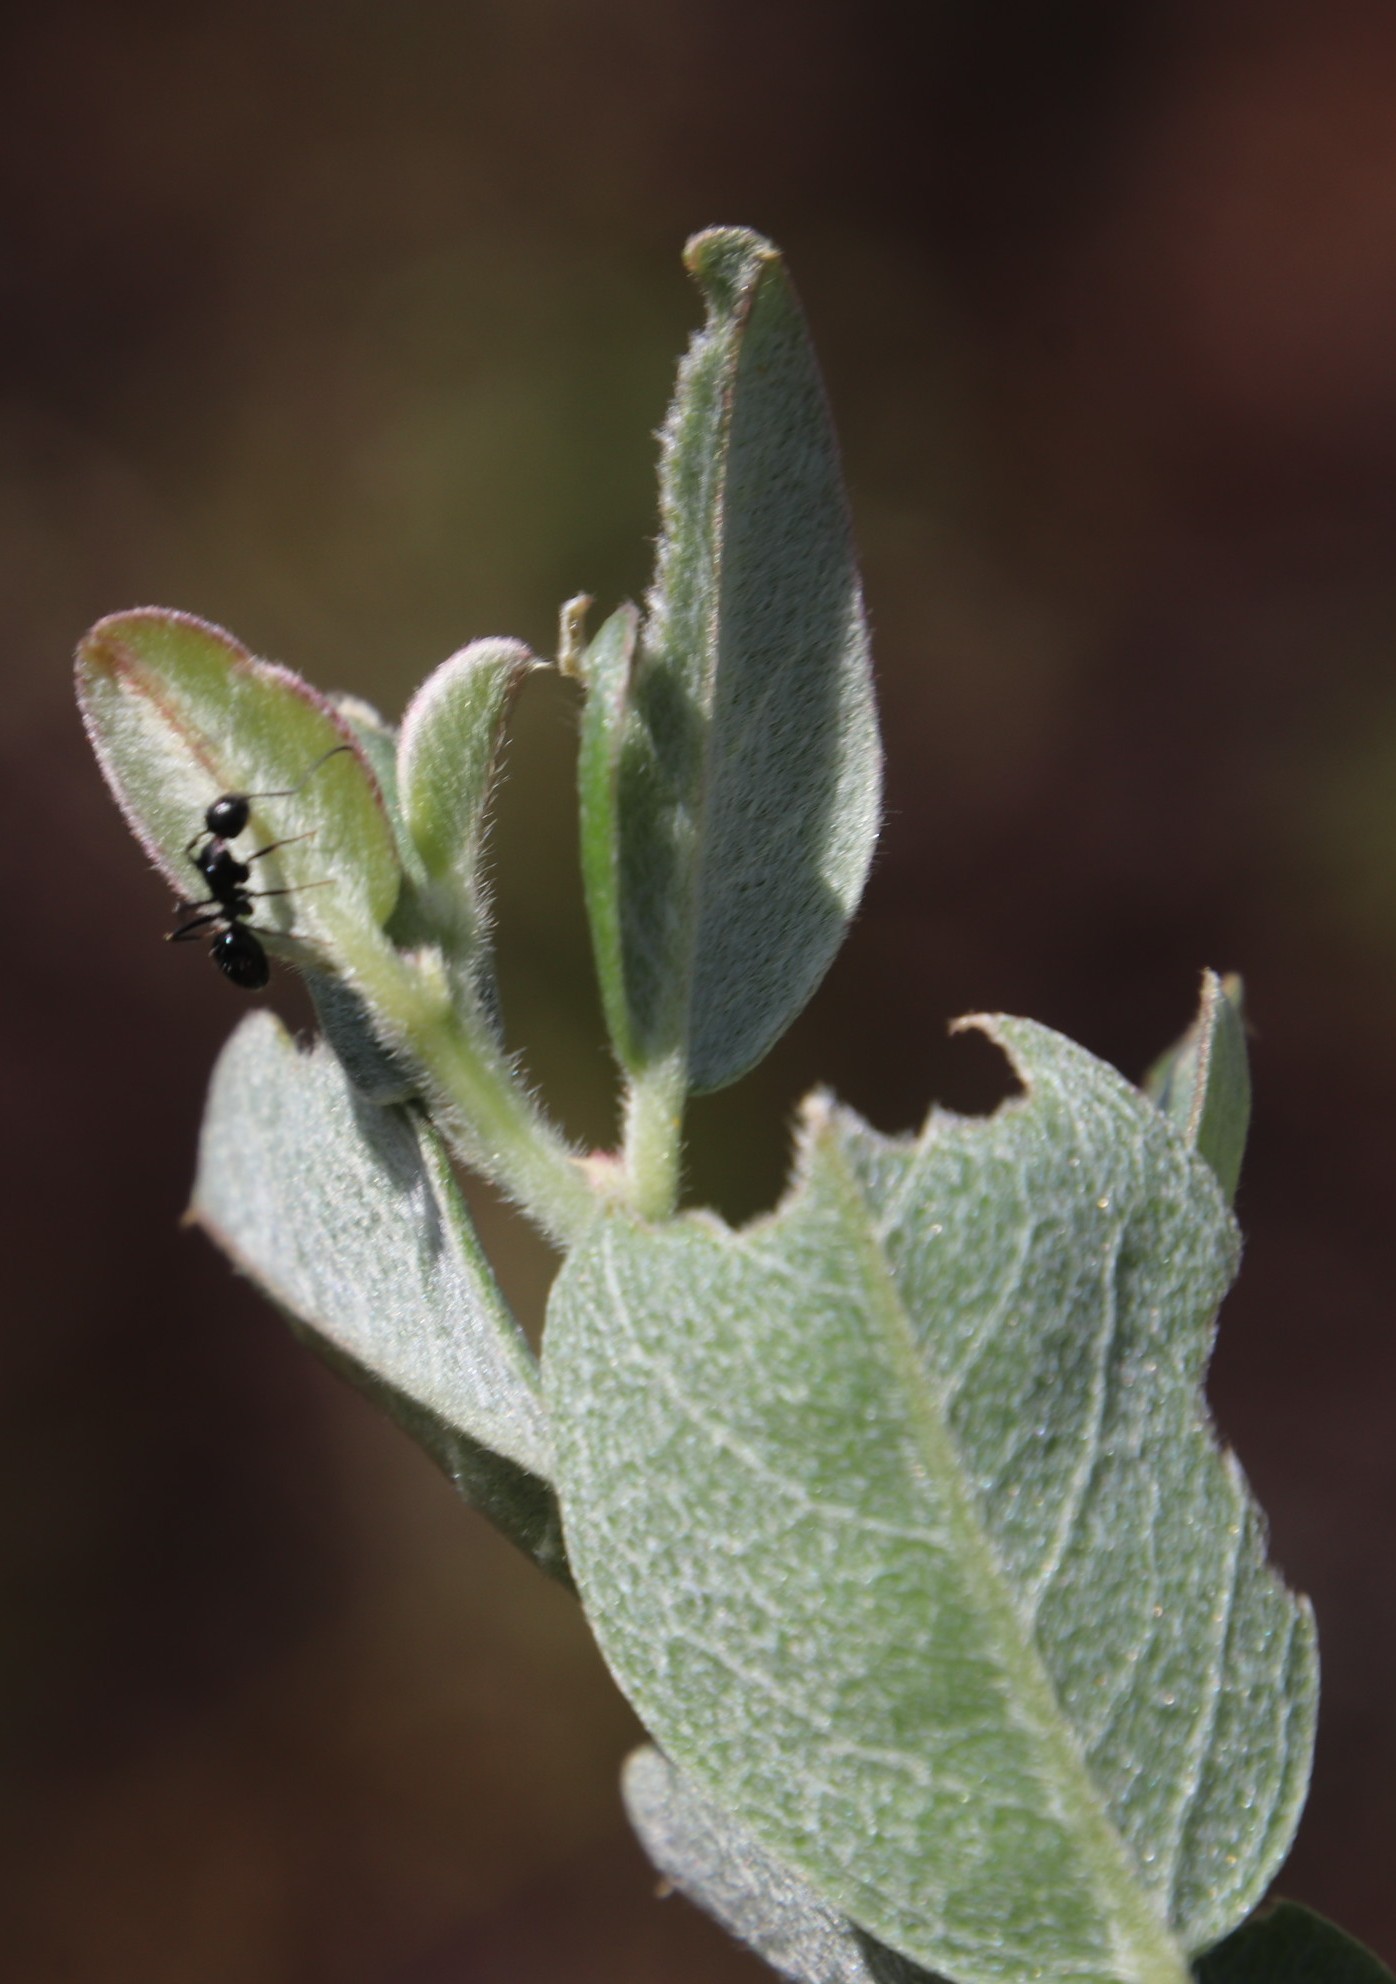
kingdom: Animalia
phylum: Arthropoda
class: Insecta
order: Hymenoptera
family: Formicidae
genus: Camponotus
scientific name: Camponotus niveosetosus
